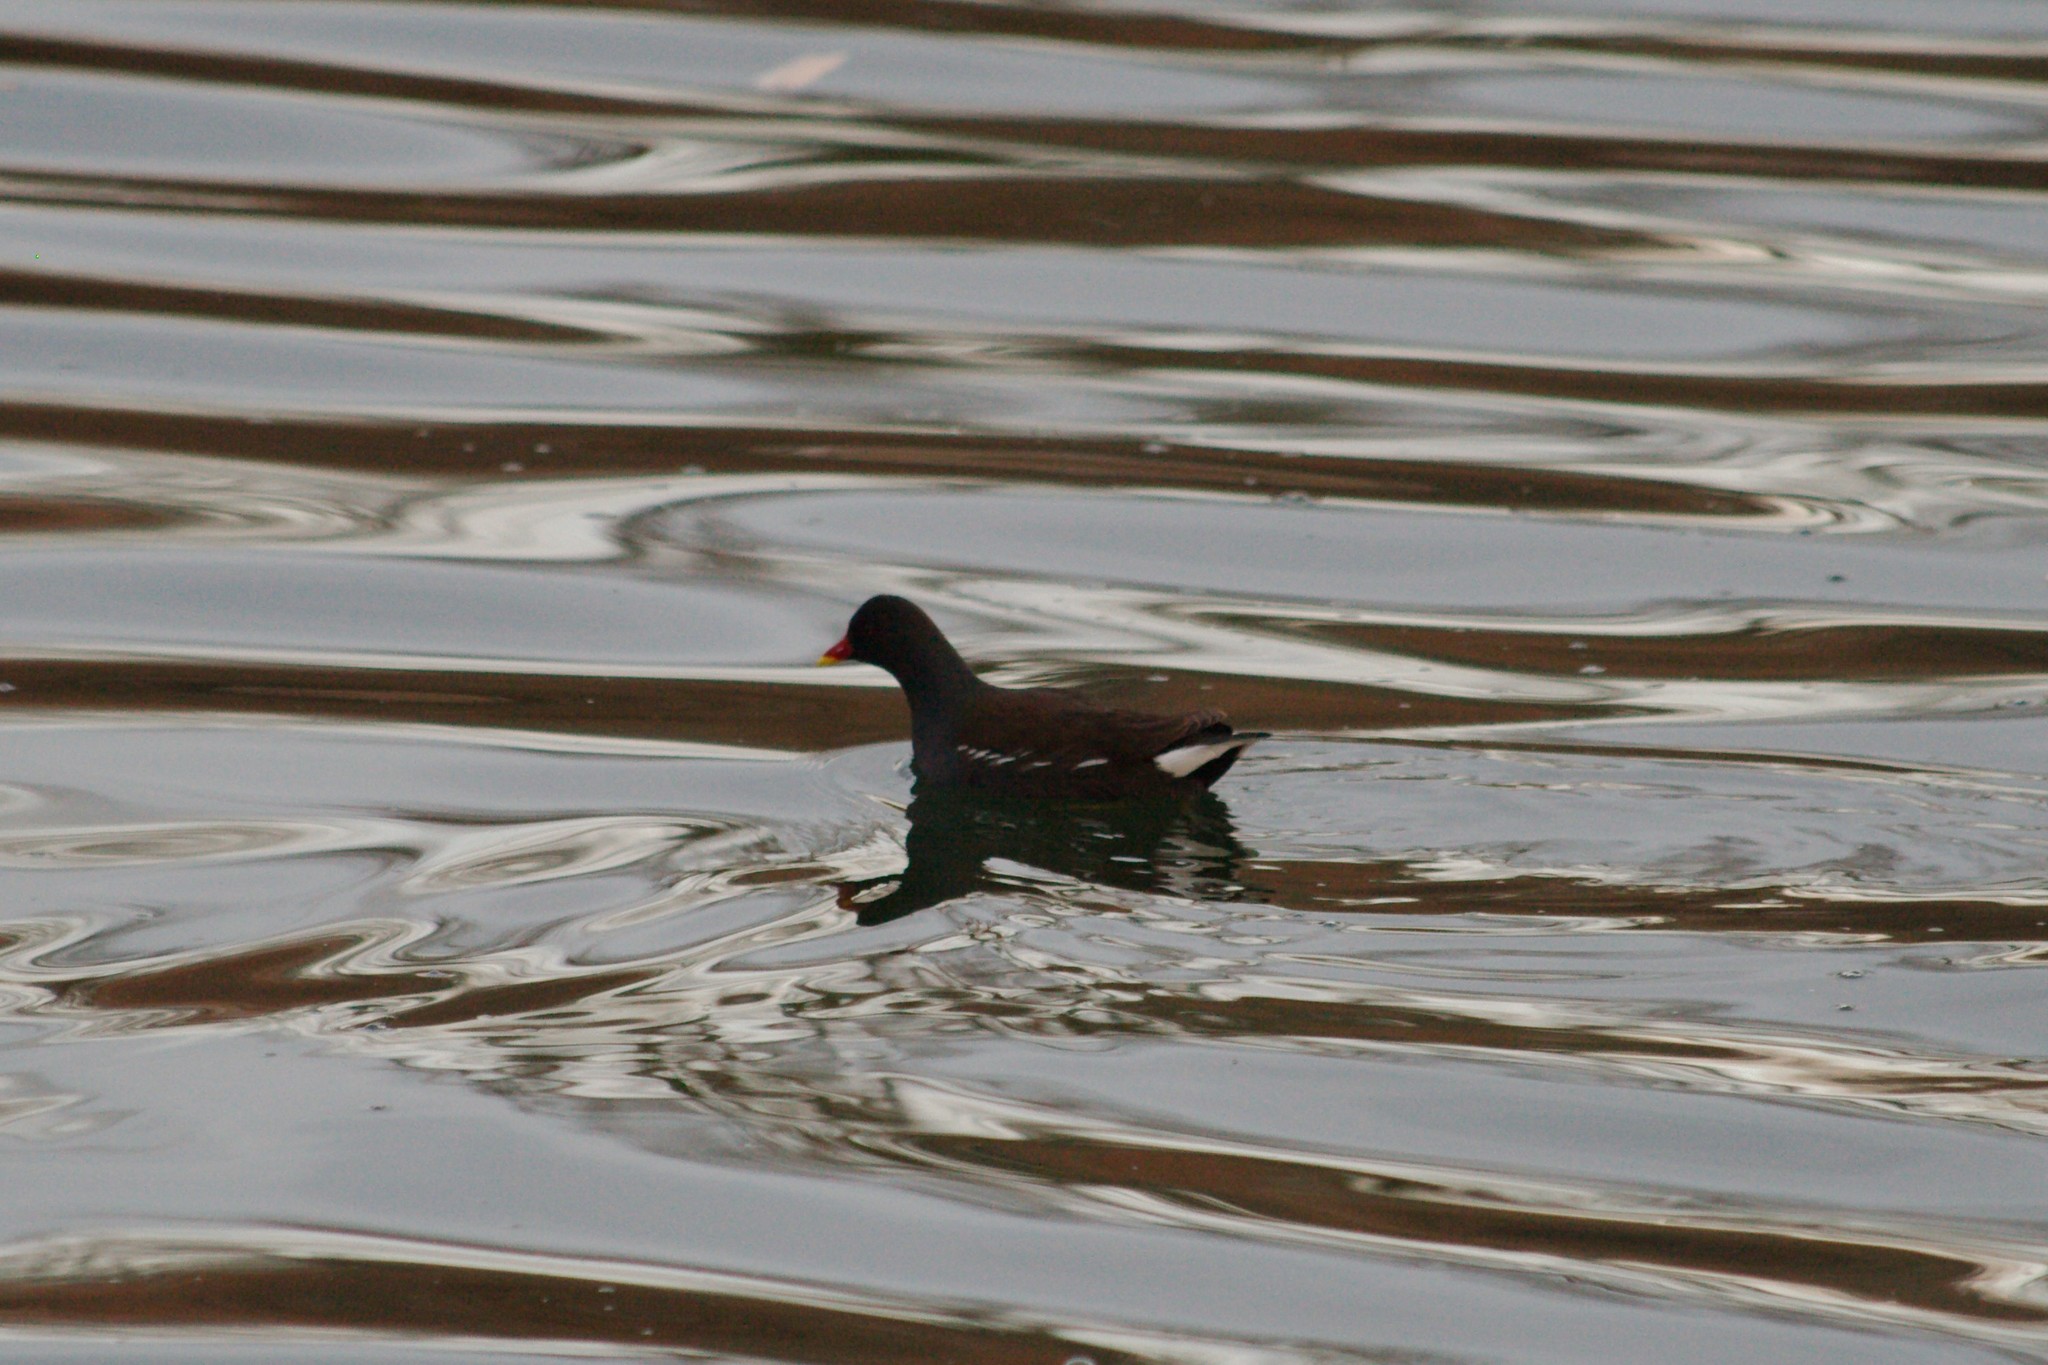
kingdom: Animalia
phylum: Chordata
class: Aves
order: Gruiformes
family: Rallidae
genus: Gallinula
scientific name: Gallinula chloropus
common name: Common moorhen
